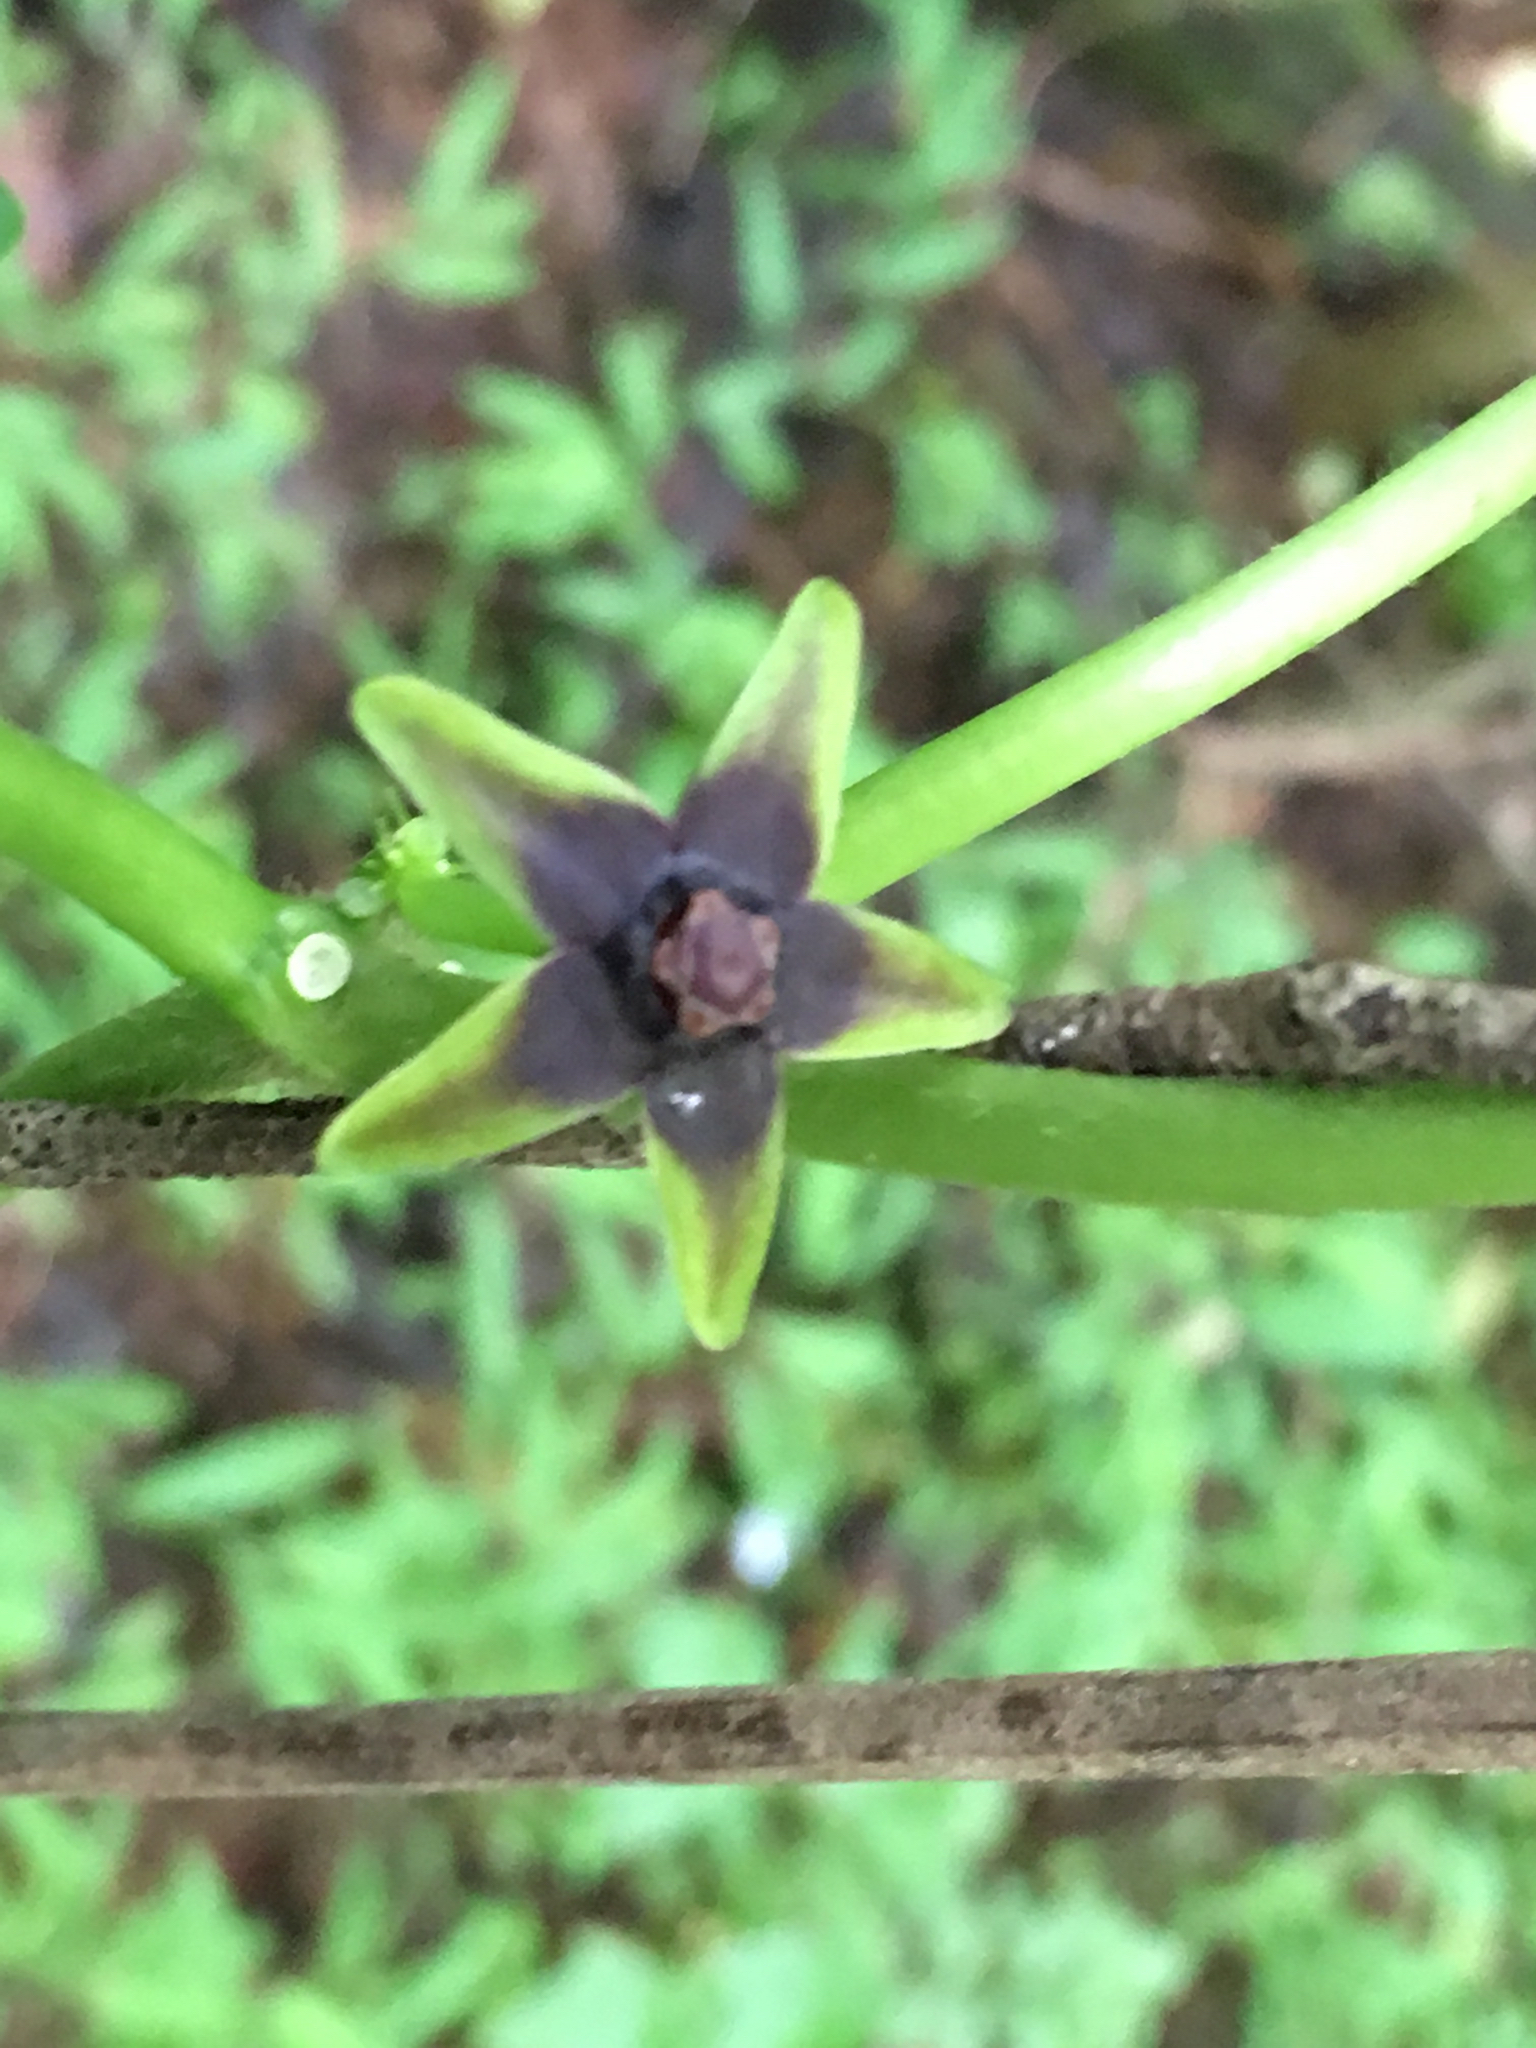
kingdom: Plantae
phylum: Tracheophyta
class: Magnoliopsida
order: Gentianales
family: Apocynaceae
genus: Gonolobus
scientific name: Gonolobus suberosus
